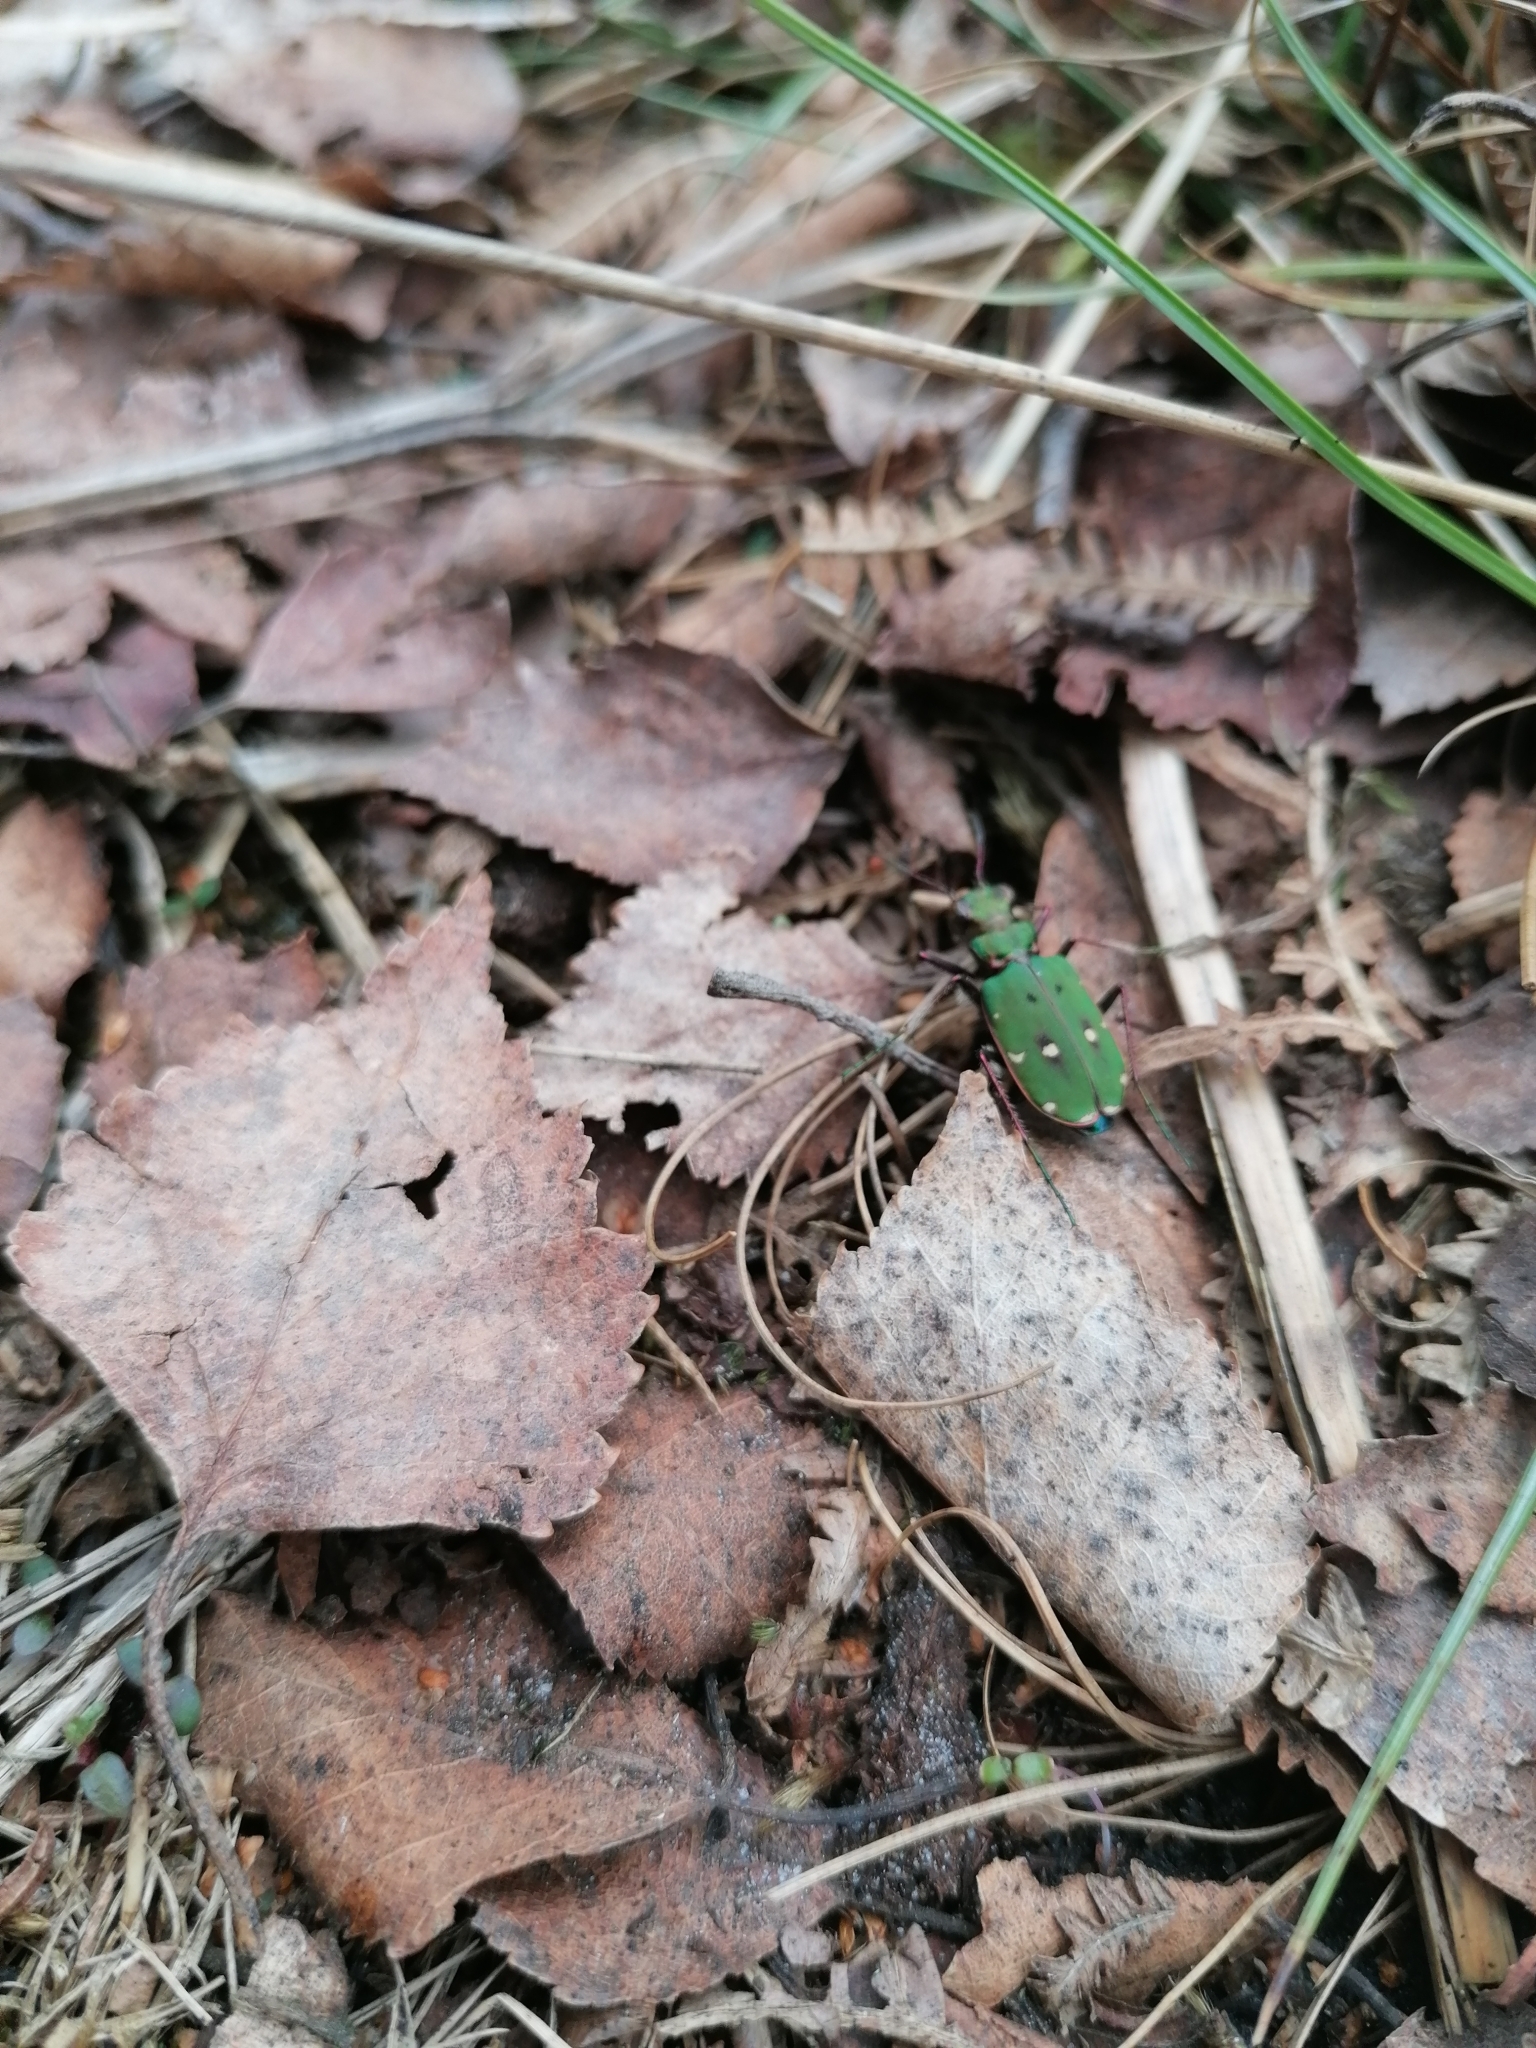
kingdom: Animalia
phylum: Arthropoda
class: Insecta
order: Coleoptera
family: Carabidae
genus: Cicindela
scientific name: Cicindela campestris
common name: Common tiger beetle
